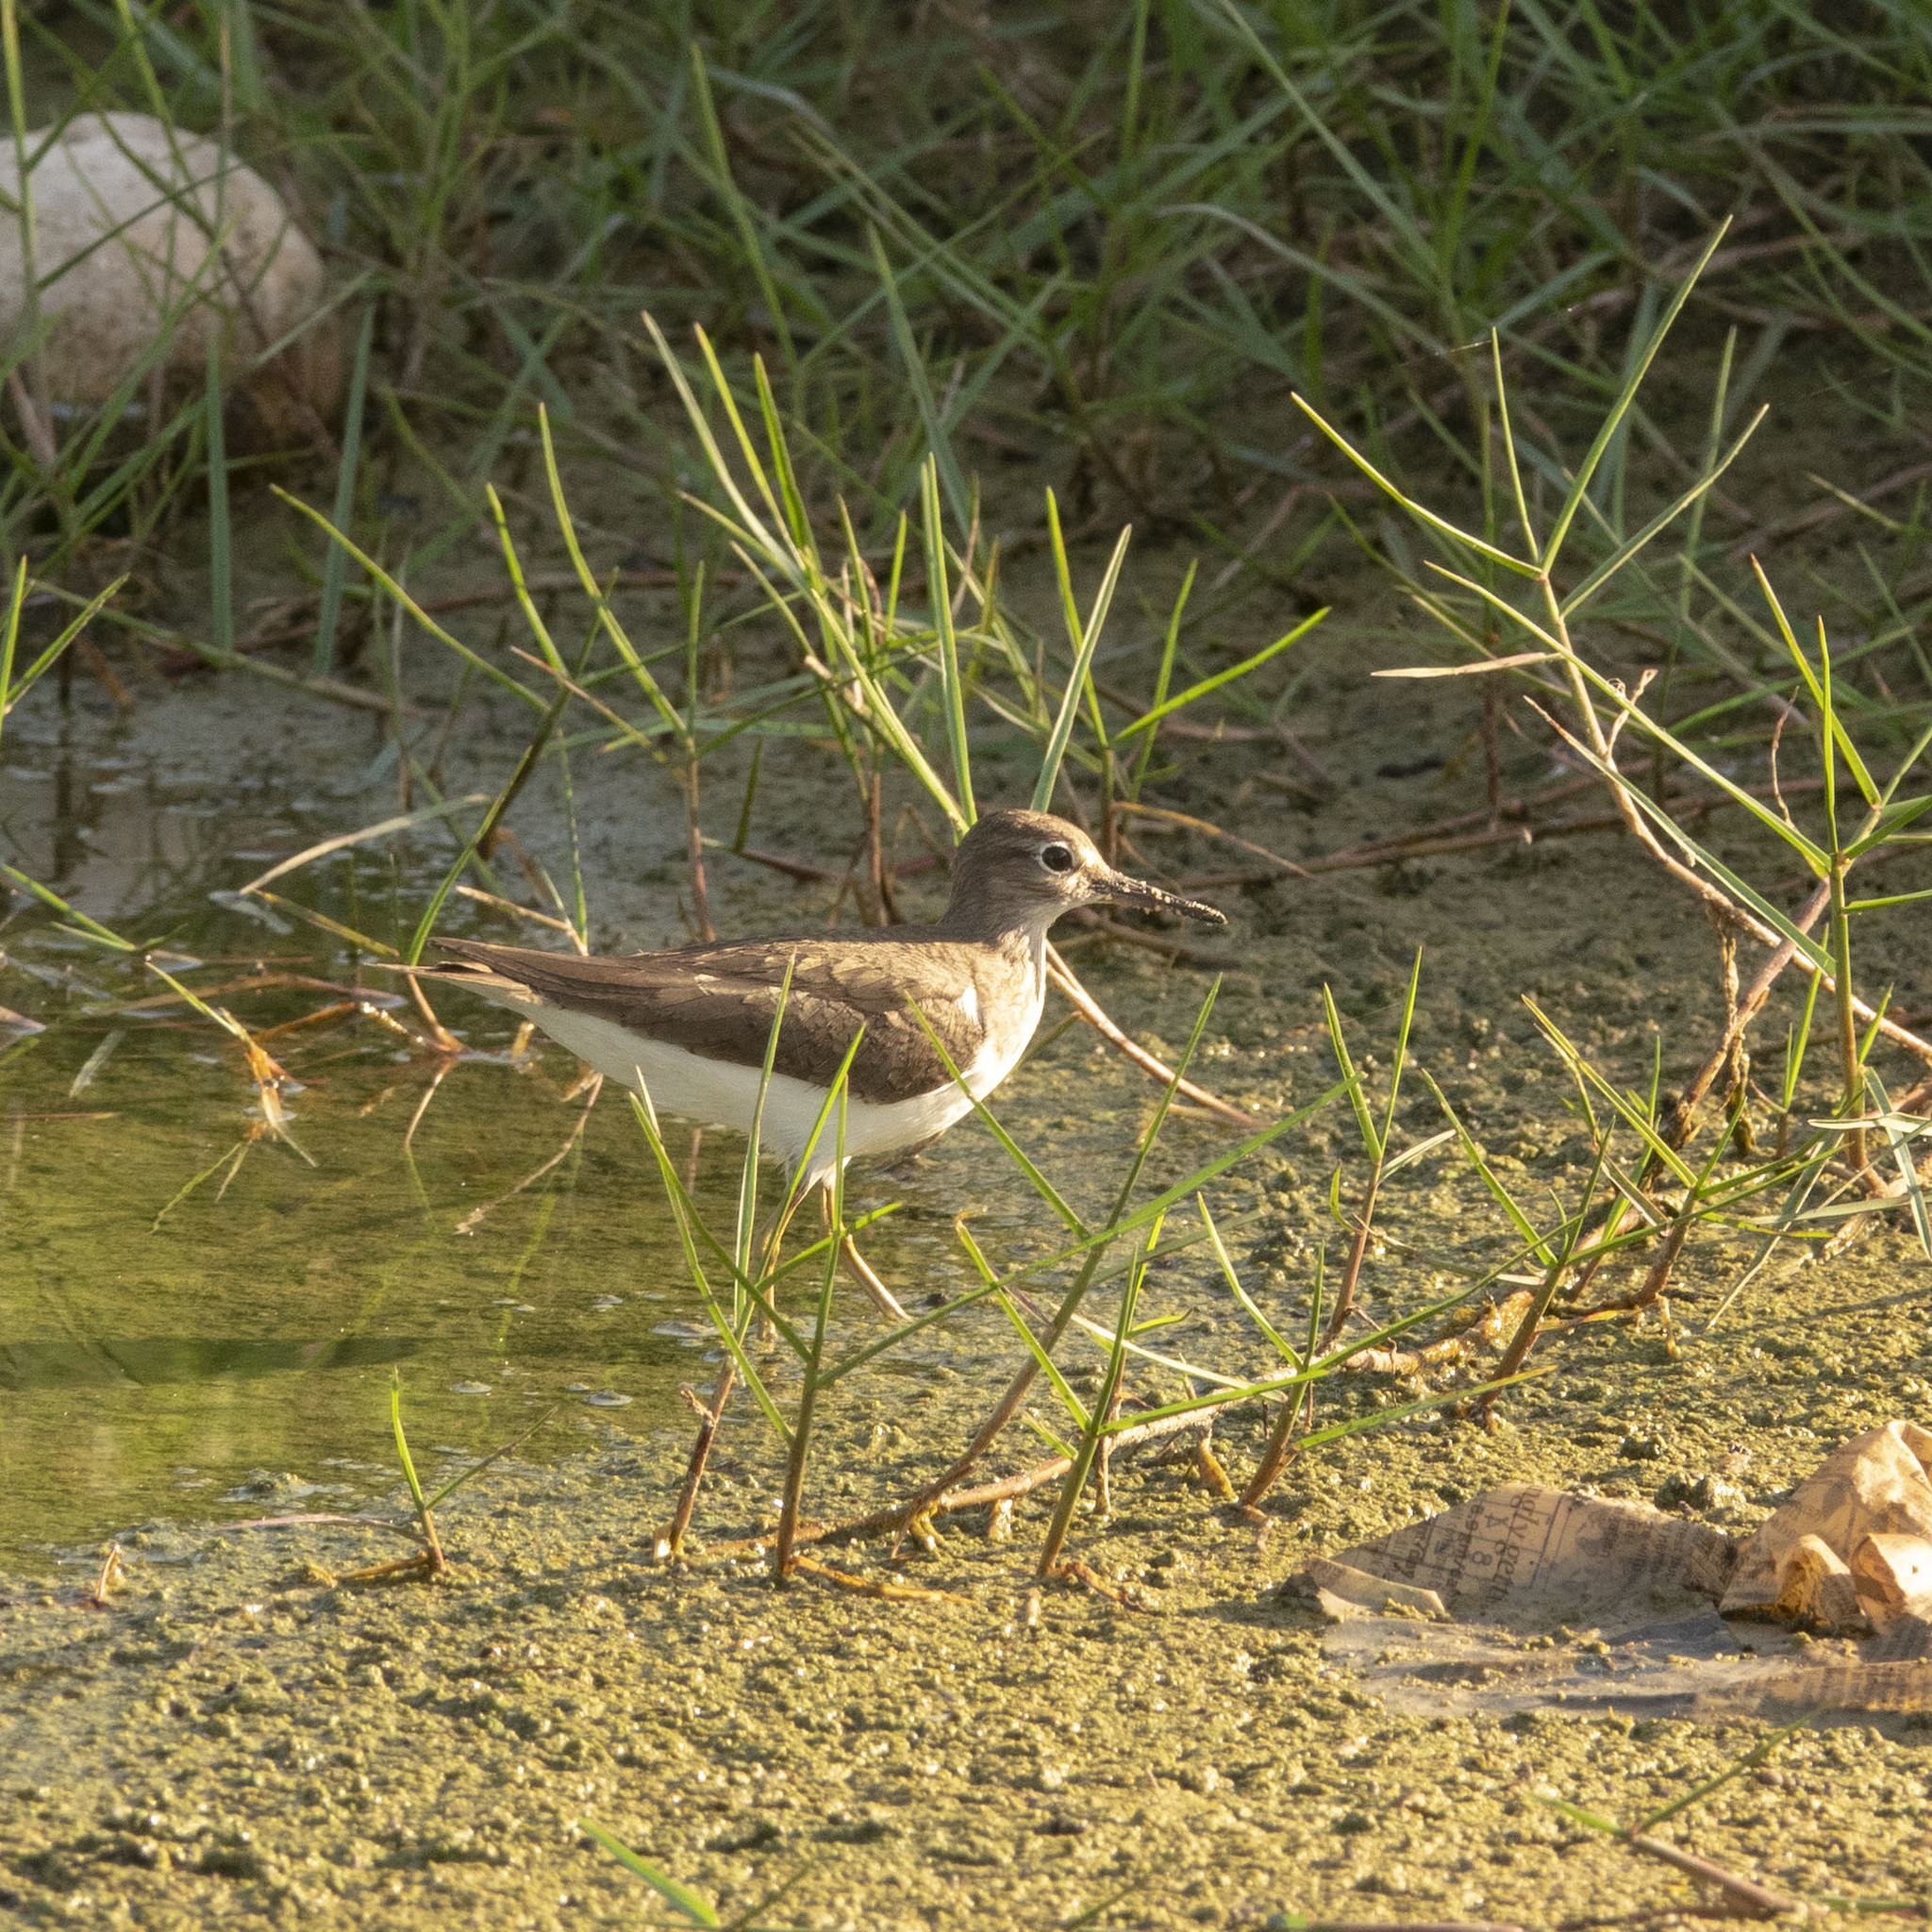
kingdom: Animalia
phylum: Chordata
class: Aves
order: Charadriiformes
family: Scolopacidae
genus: Actitis
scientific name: Actitis hypoleucos
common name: Common sandpiper
